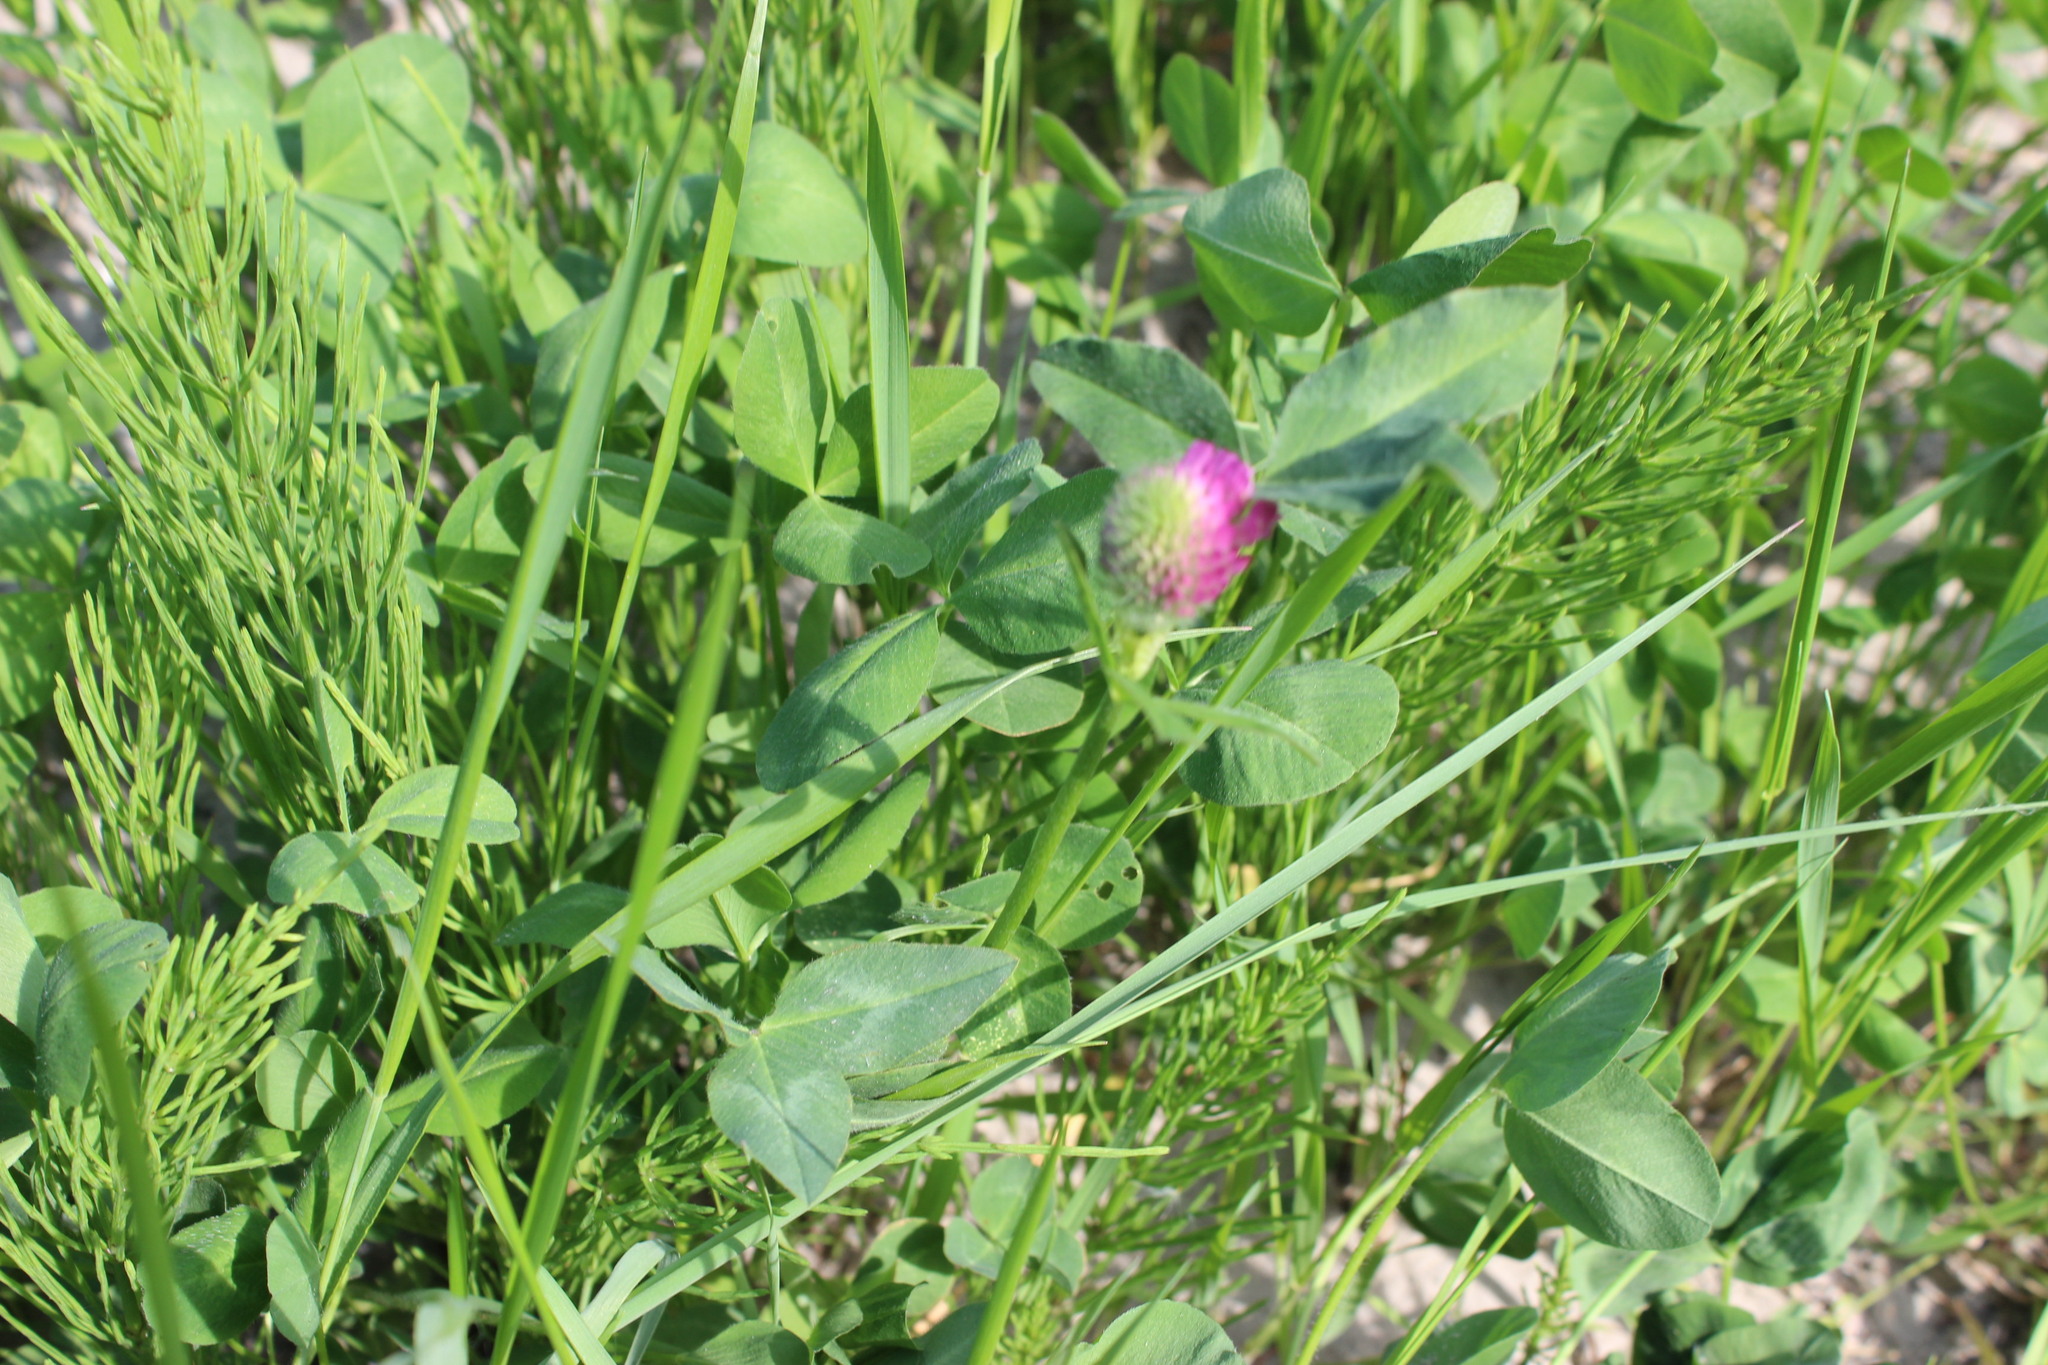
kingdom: Plantae
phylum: Tracheophyta
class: Magnoliopsida
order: Fabales
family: Fabaceae
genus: Trifolium
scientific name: Trifolium pratense
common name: Red clover
